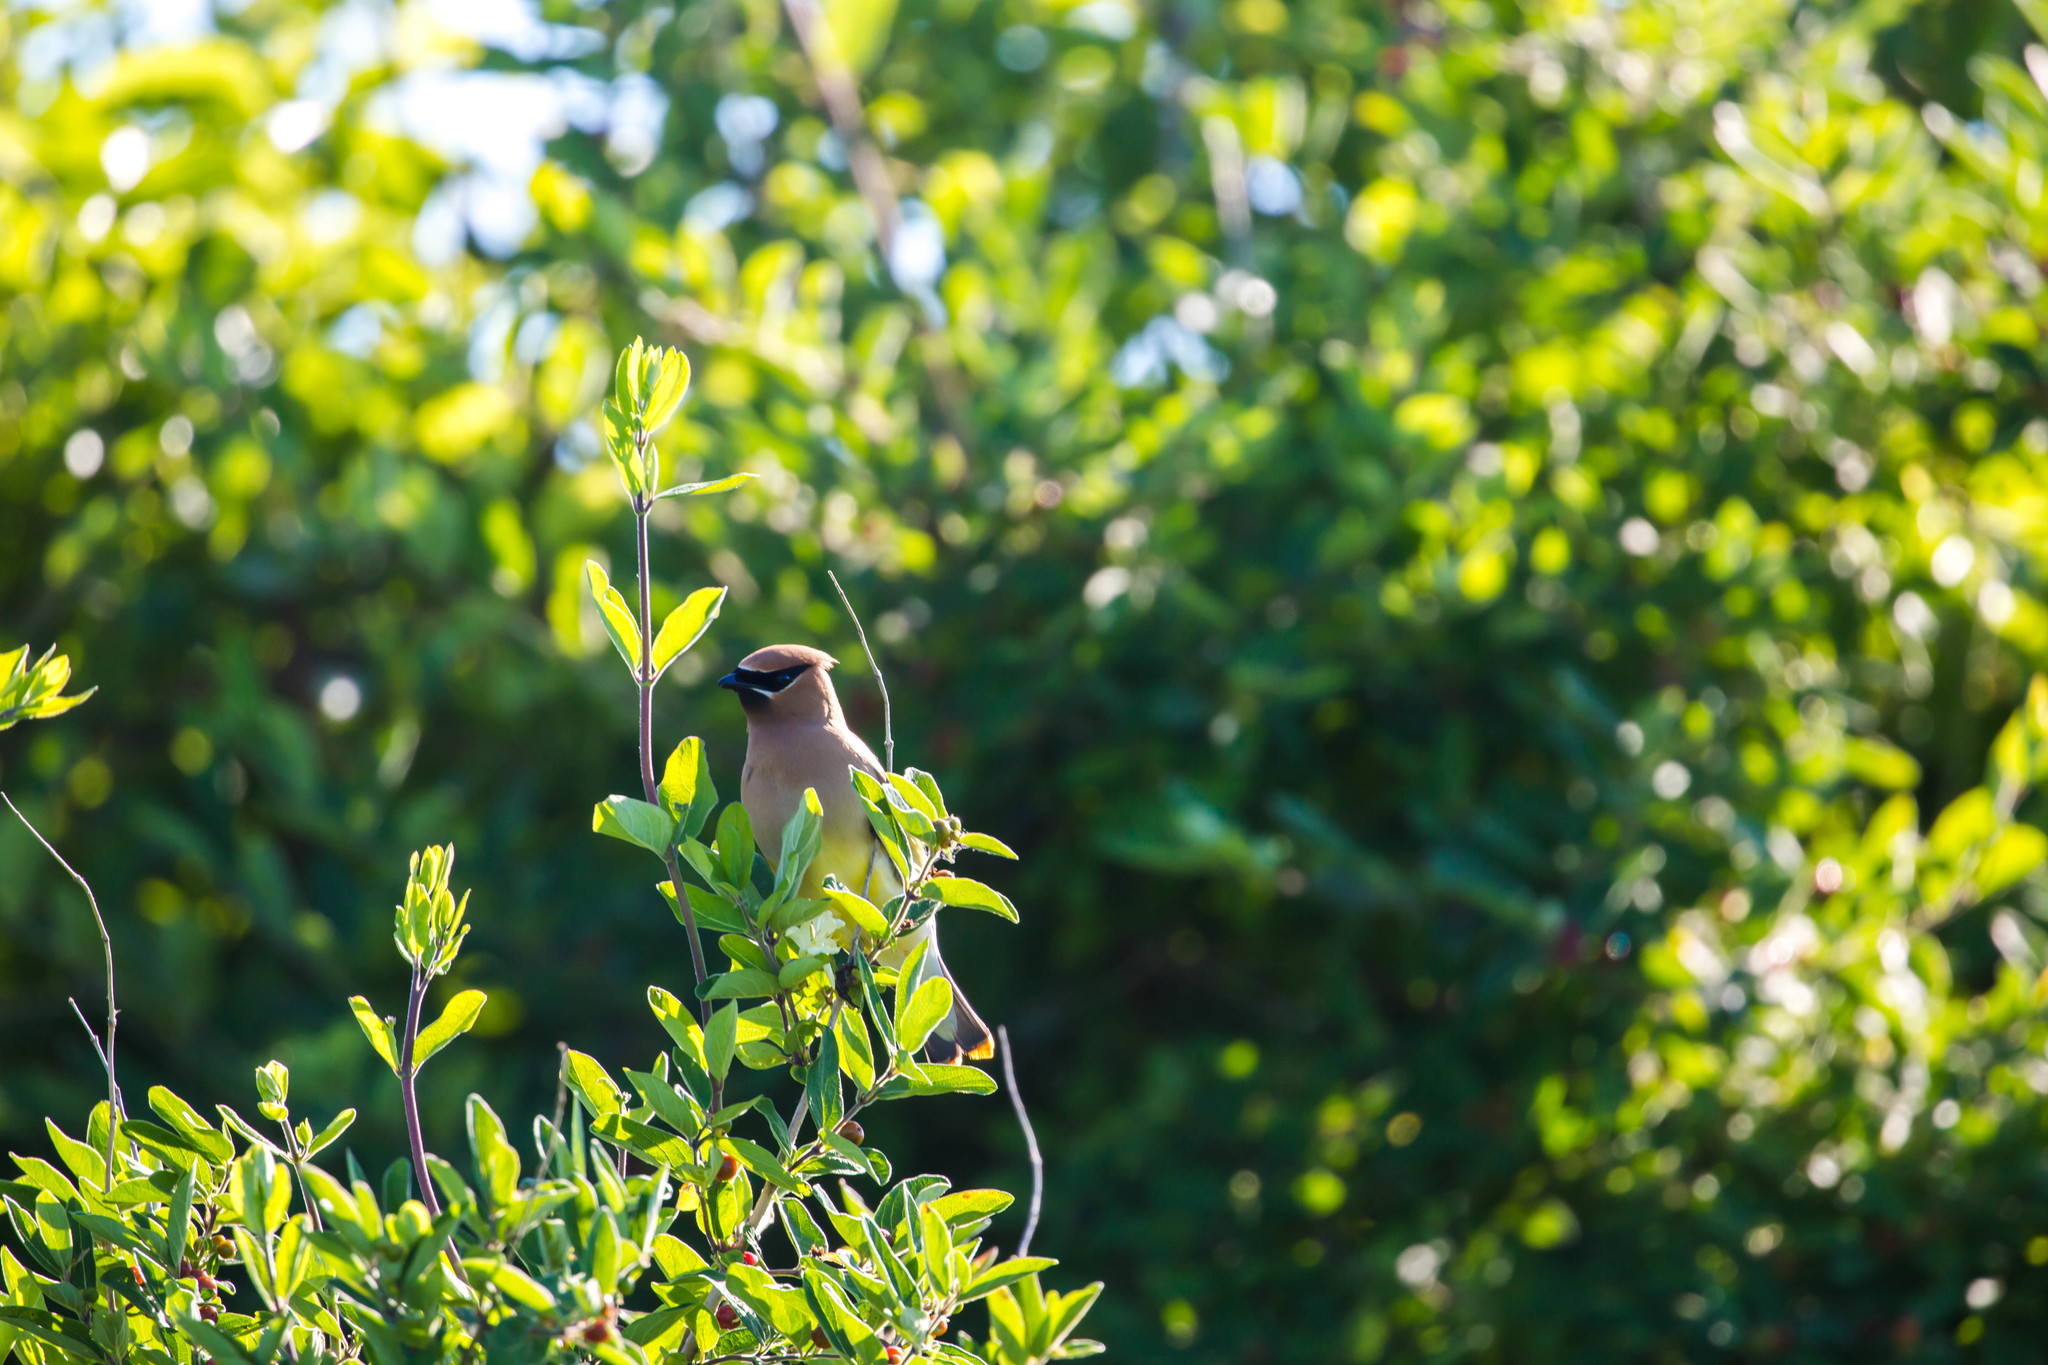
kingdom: Animalia
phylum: Chordata
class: Aves
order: Passeriformes
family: Bombycillidae
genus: Bombycilla
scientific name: Bombycilla cedrorum
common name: Cedar waxwing
